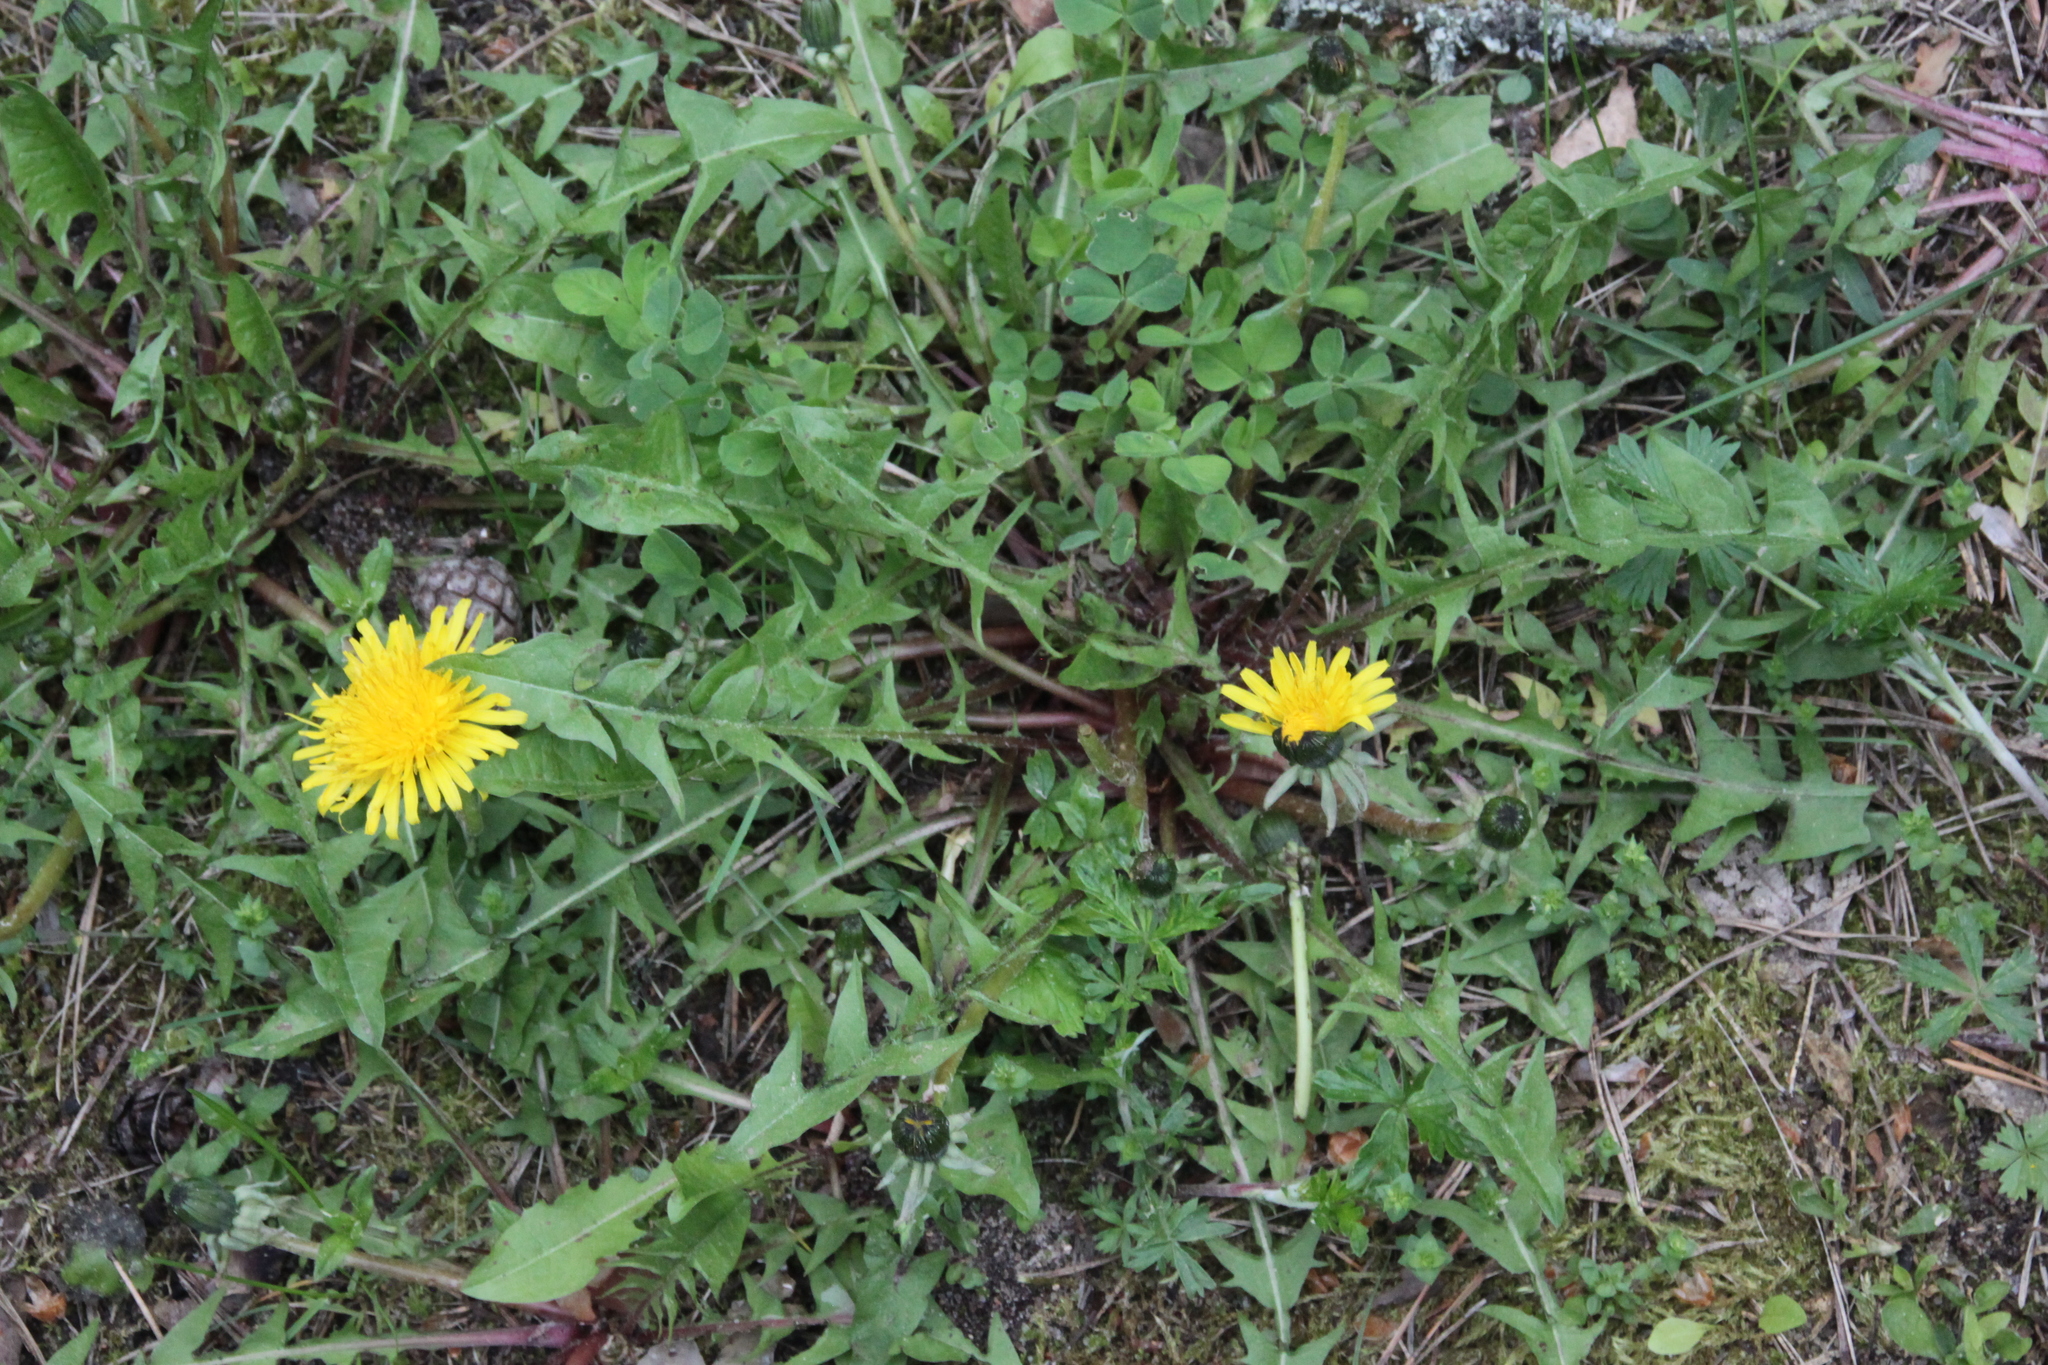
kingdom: Plantae
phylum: Tracheophyta
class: Magnoliopsida
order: Asterales
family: Asteraceae
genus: Taraxacum
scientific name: Taraxacum officinale
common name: Common dandelion
